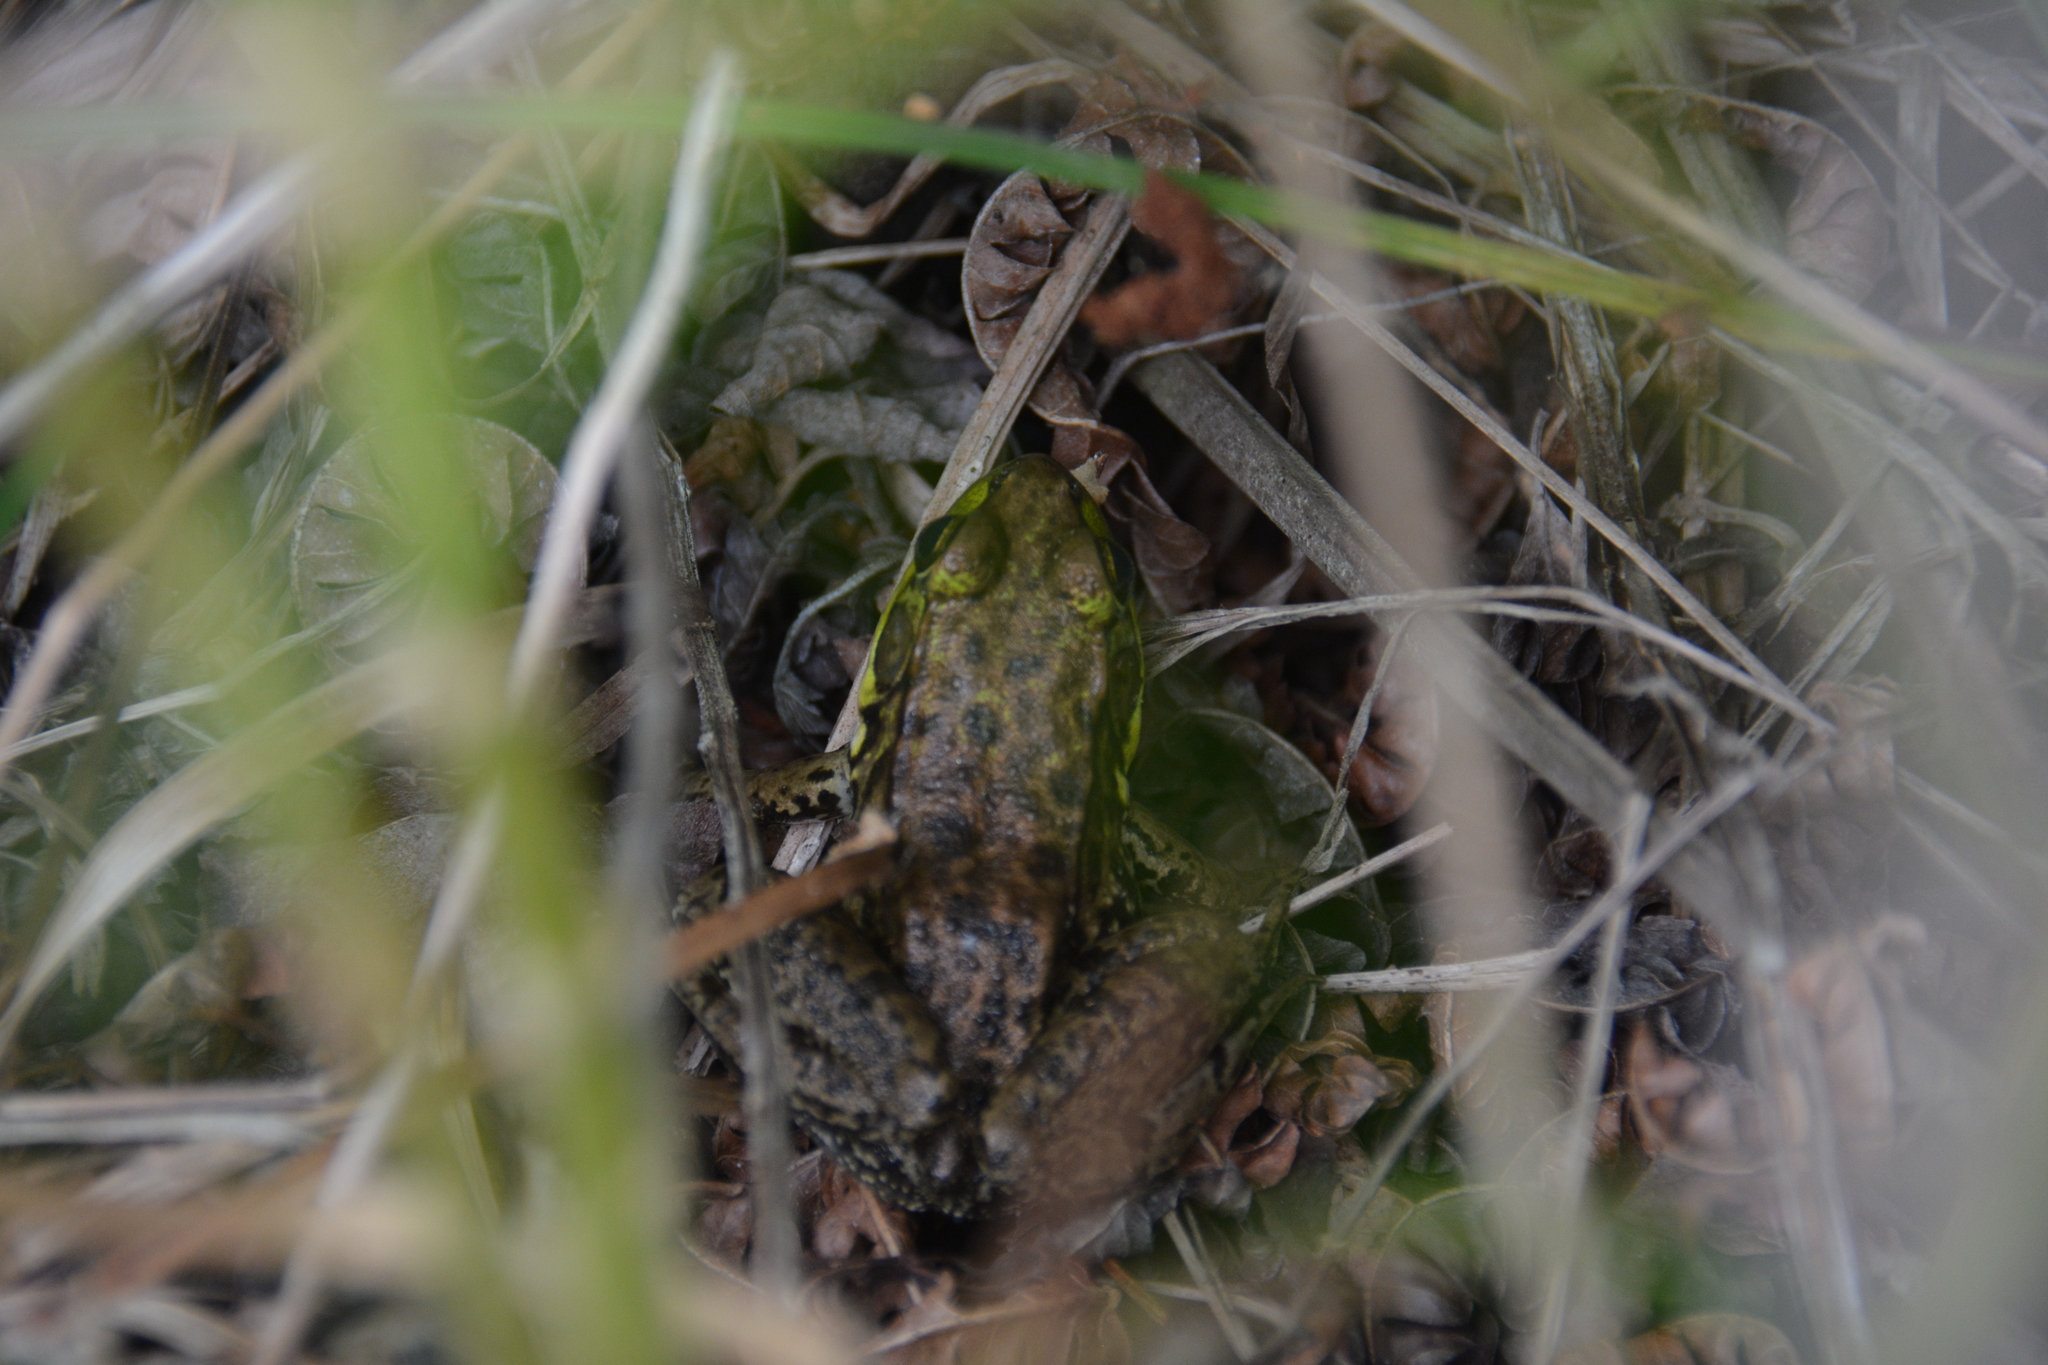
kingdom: Animalia
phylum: Chordata
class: Amphibia
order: Anura
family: Ranidae
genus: Lithobates
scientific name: Lithobates clamitans
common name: Green frog
